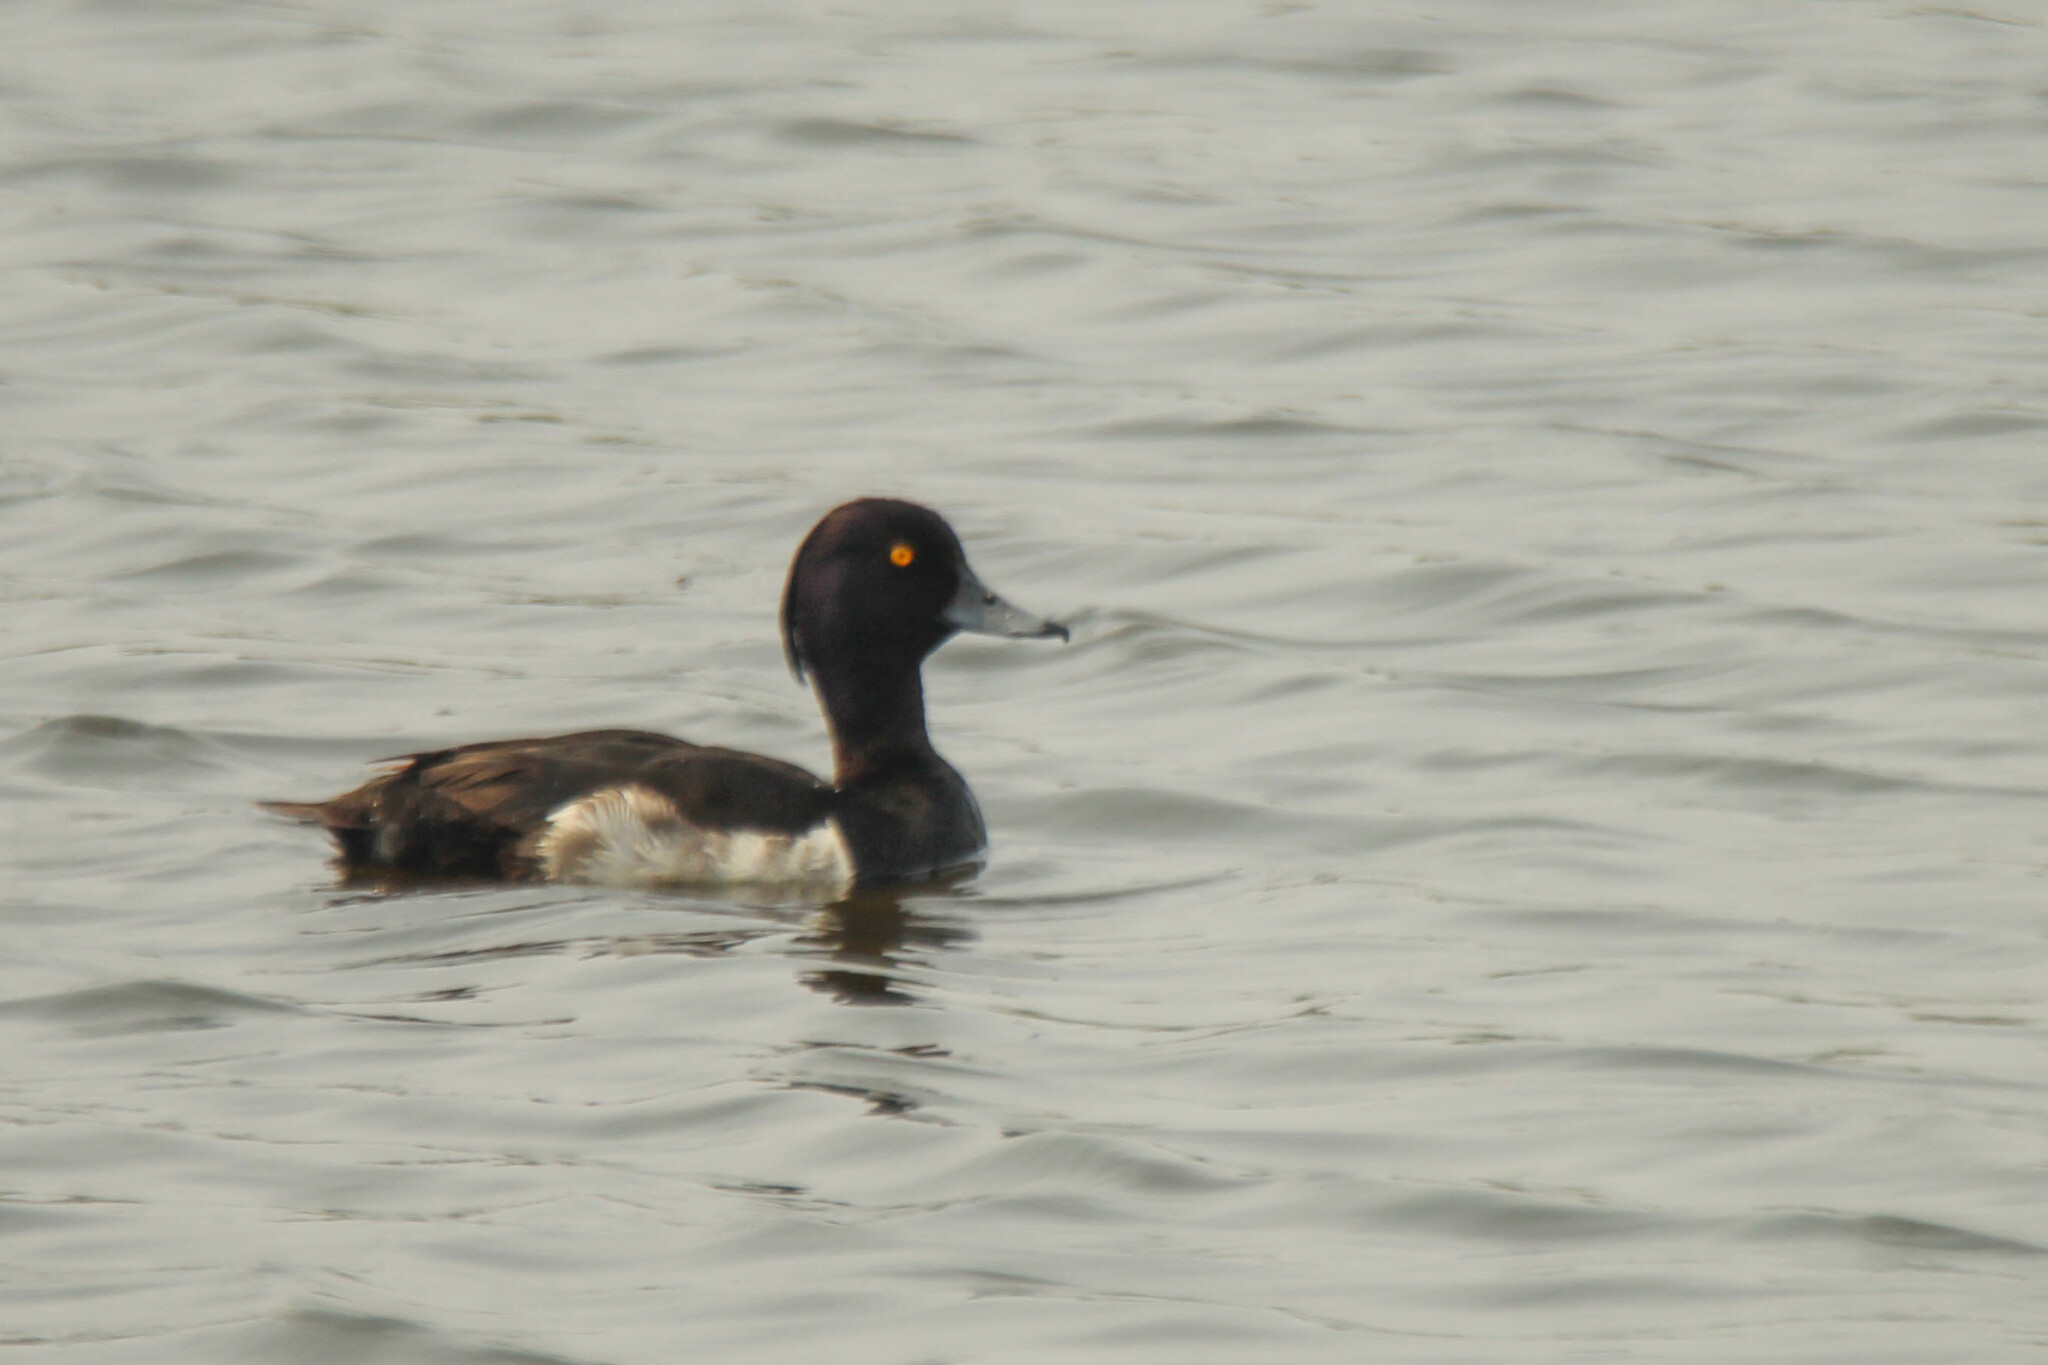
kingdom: Animalia
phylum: Chordata
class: Aves
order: Anseriformes
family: Anatidae
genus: Aythya
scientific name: Aythya fuligula
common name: Tufted duck
